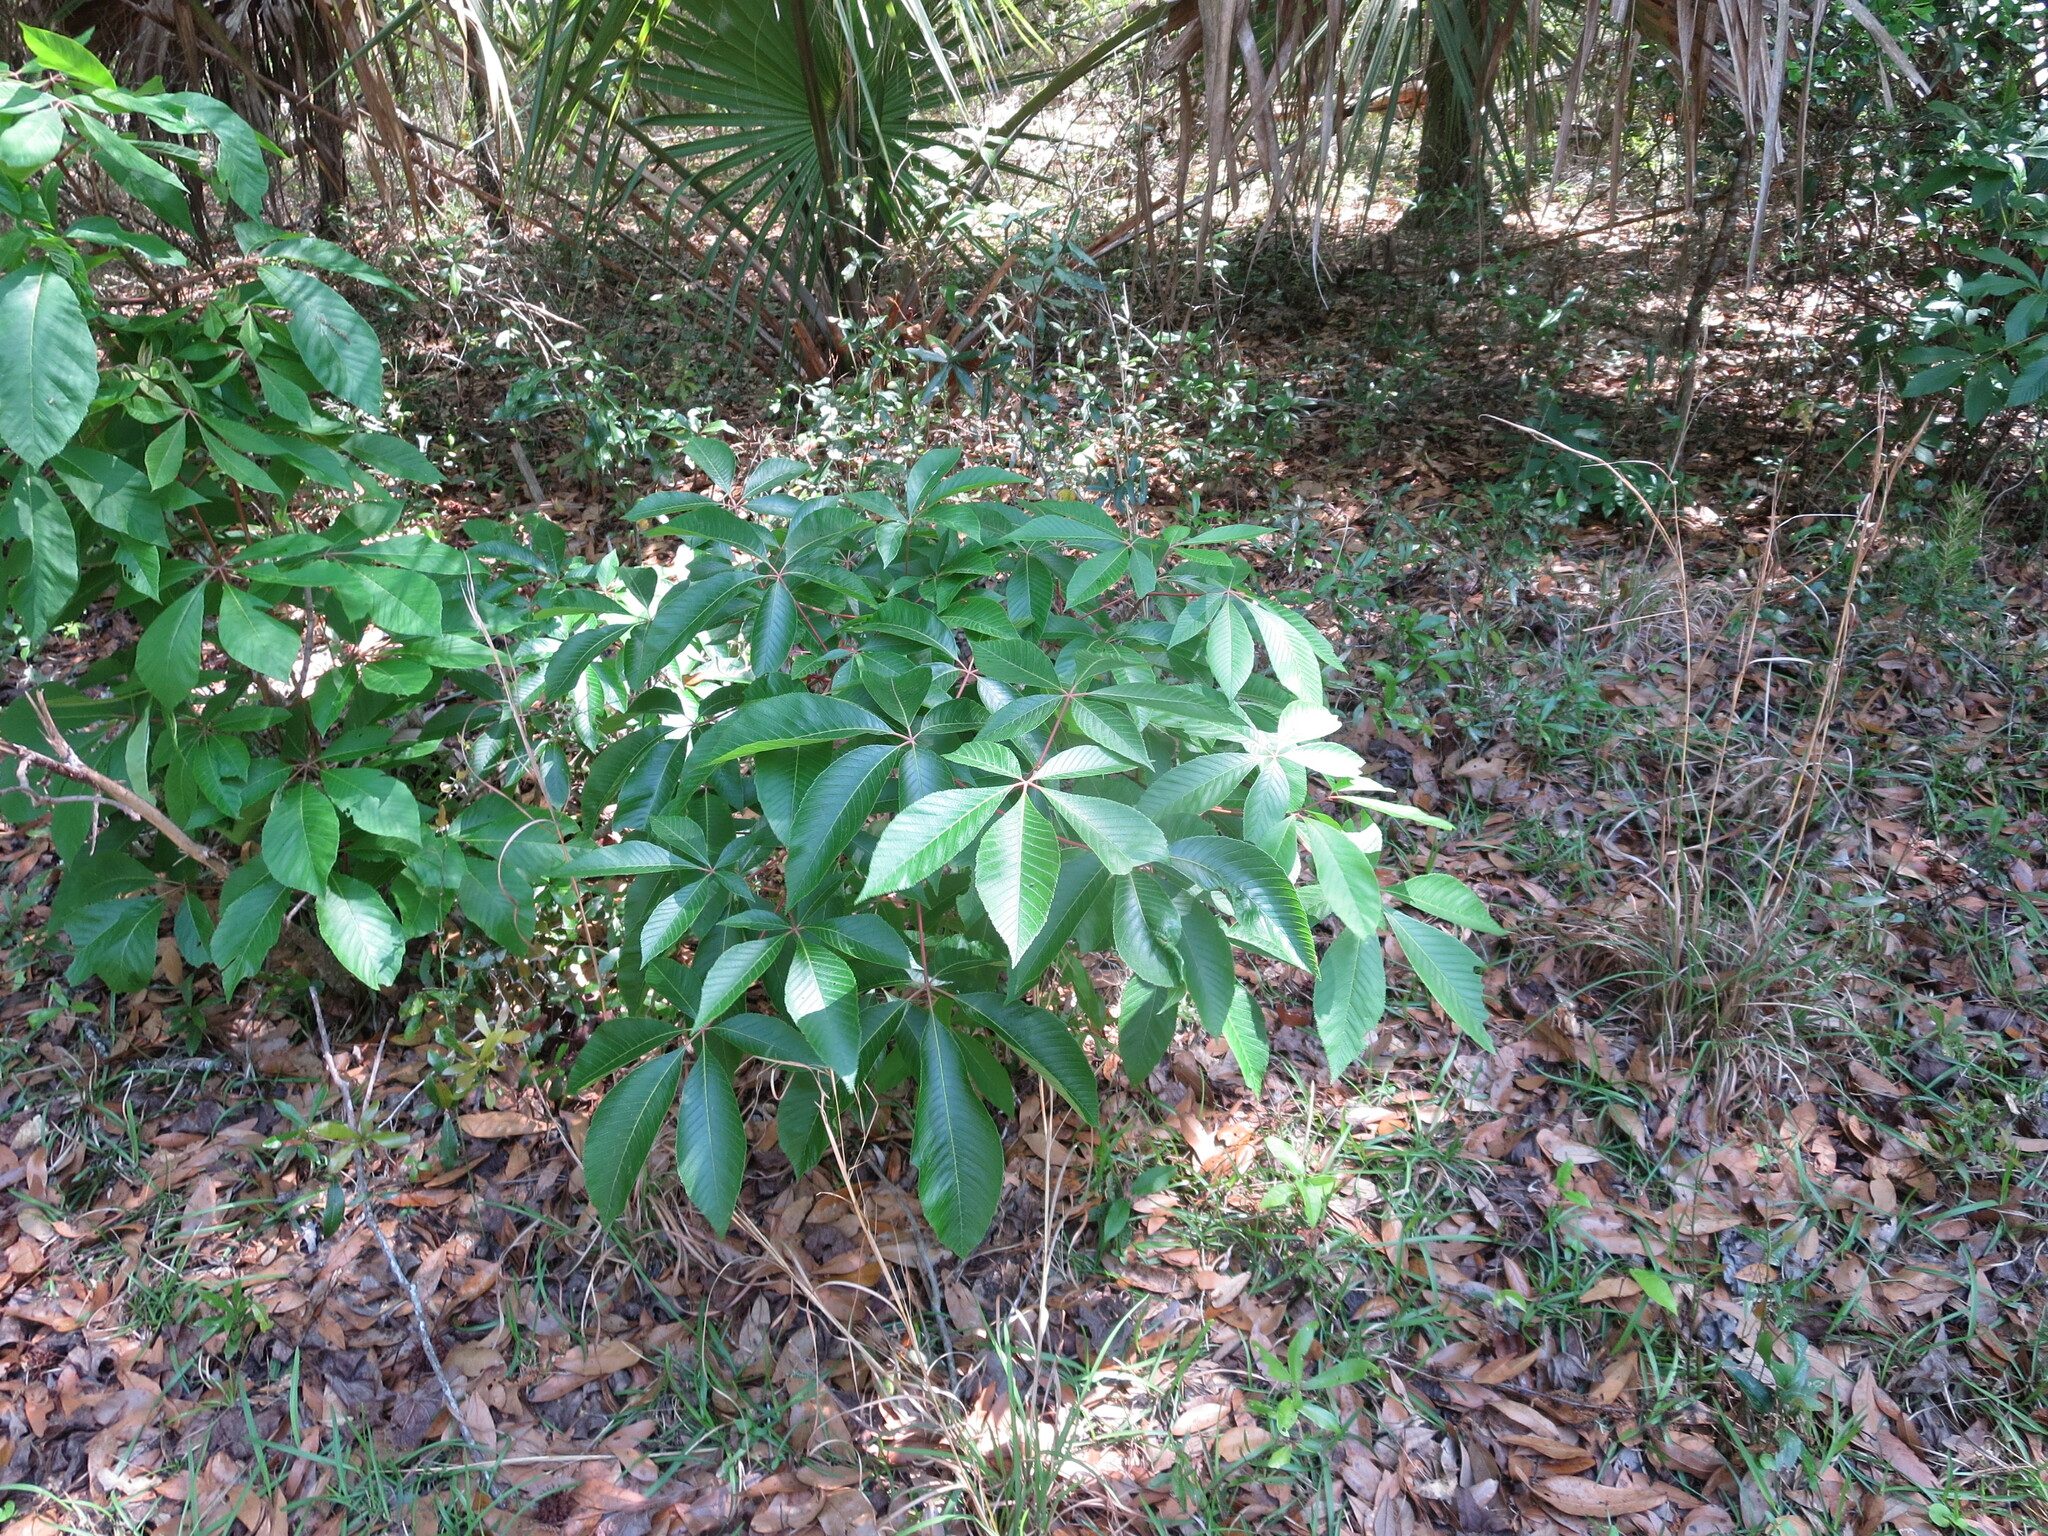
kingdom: Plantae
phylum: Tracheophyta
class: Magnoliopsida
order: Sapindales
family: Sapindaceae
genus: Aesculus
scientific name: Aesculus pavia
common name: Red buckeye
